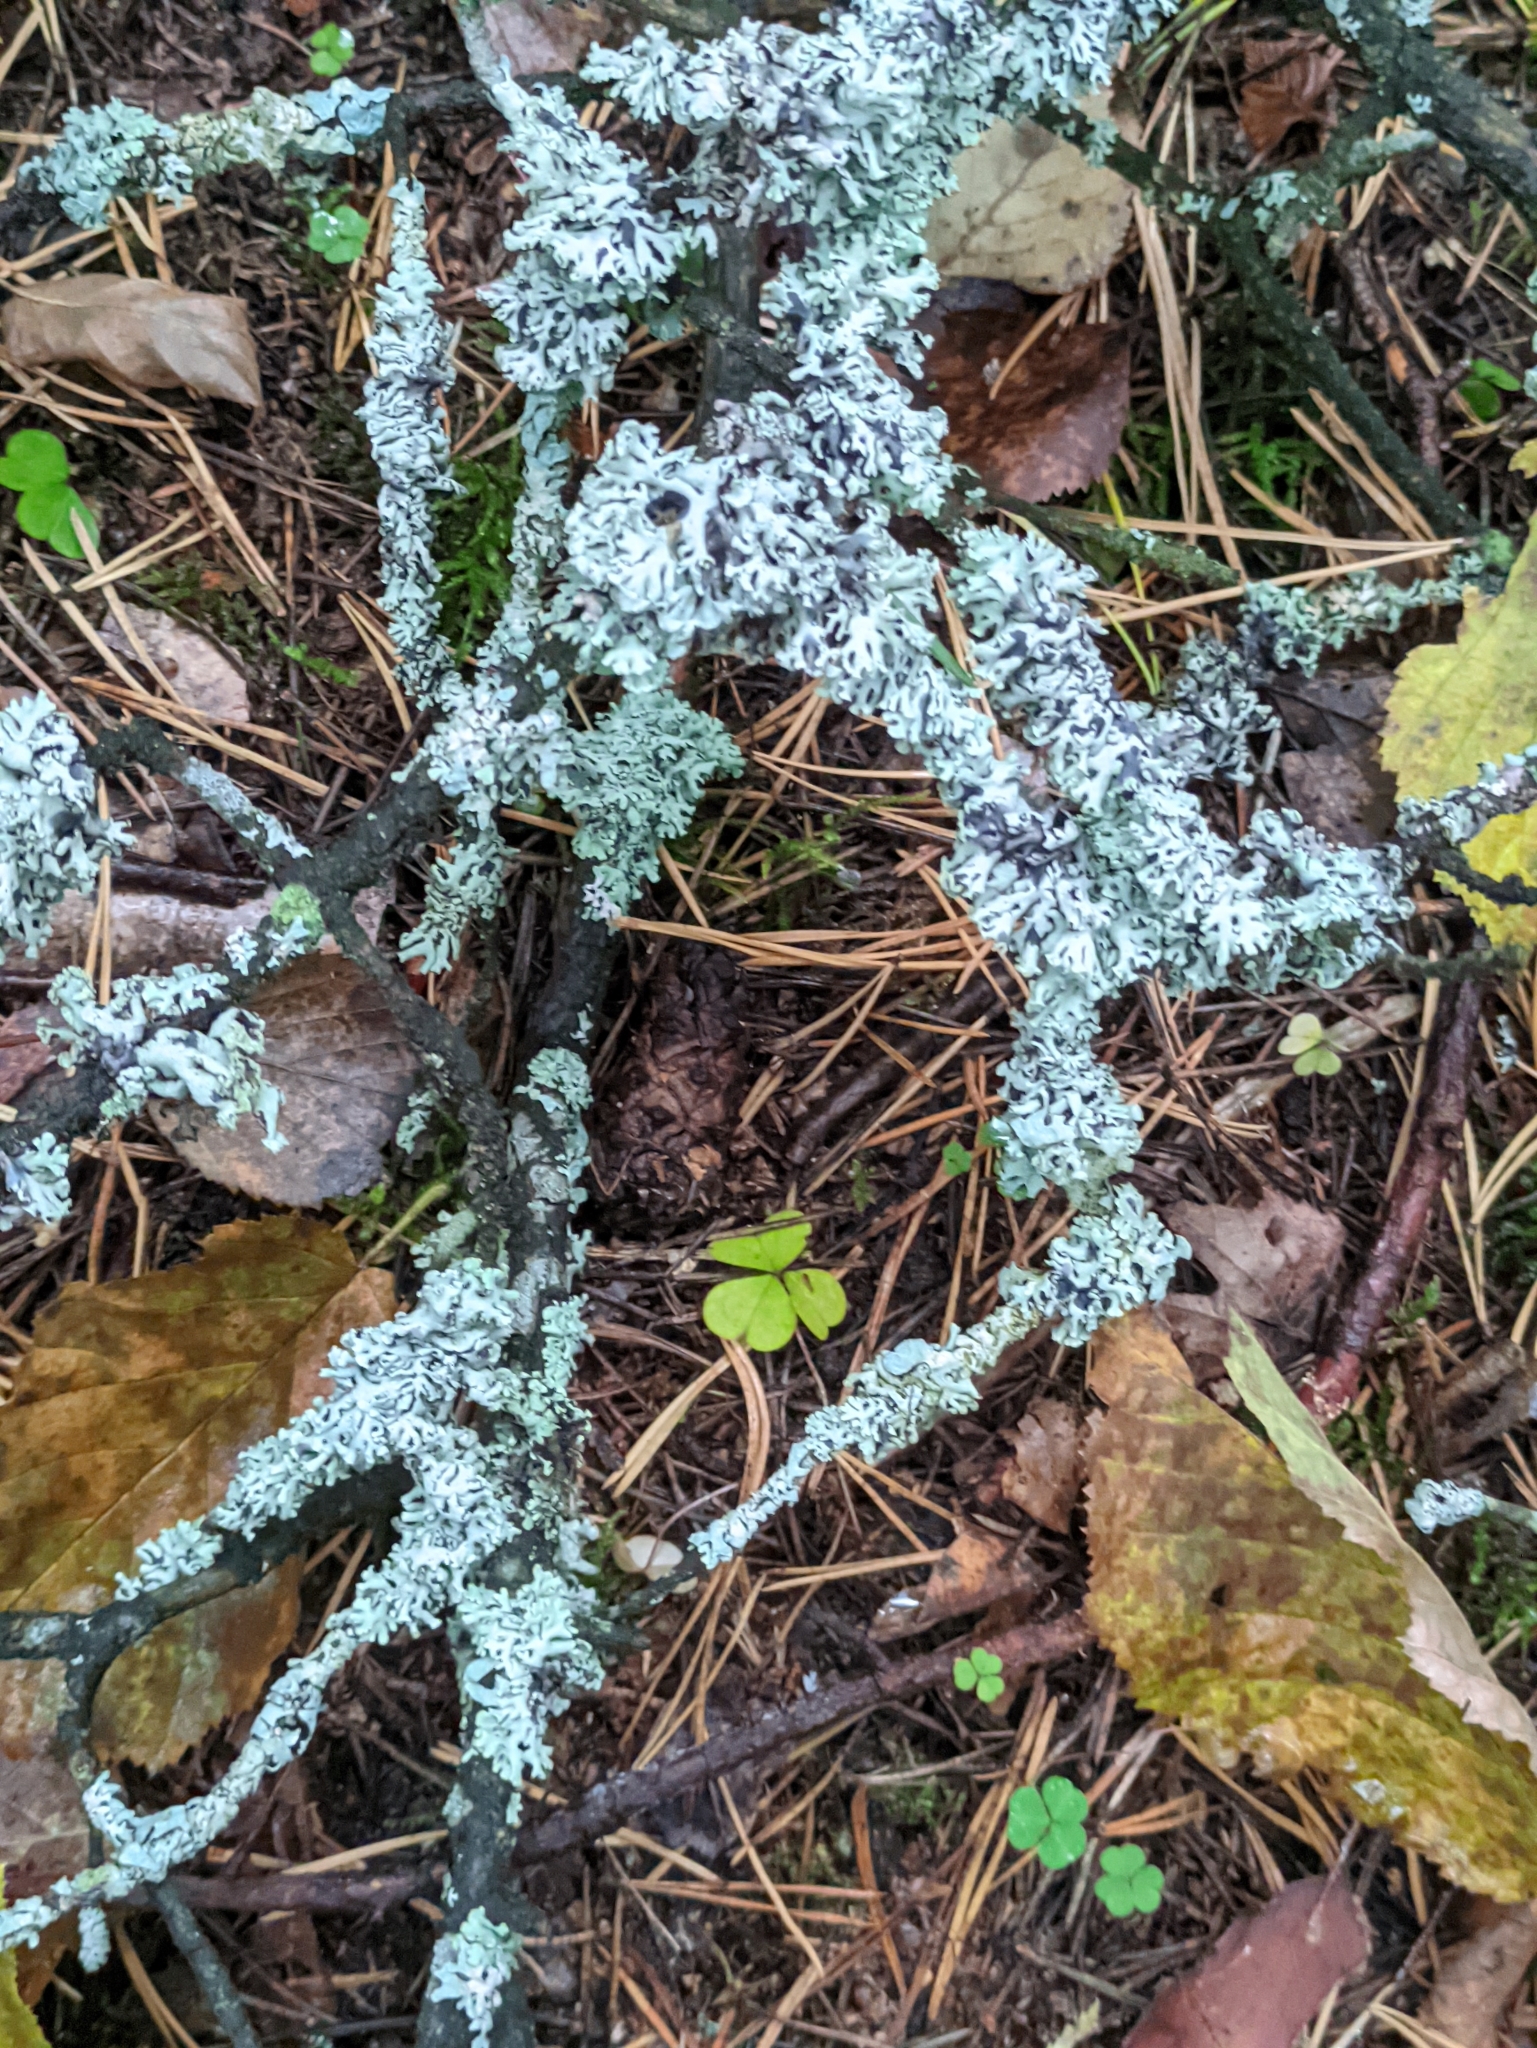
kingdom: Fungi
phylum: Ascomycota
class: Lecanoromycetes
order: Lecanorales
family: Parmeliaceae
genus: Hypogymnia
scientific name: Hypogymnia physodes
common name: Dark crottle
